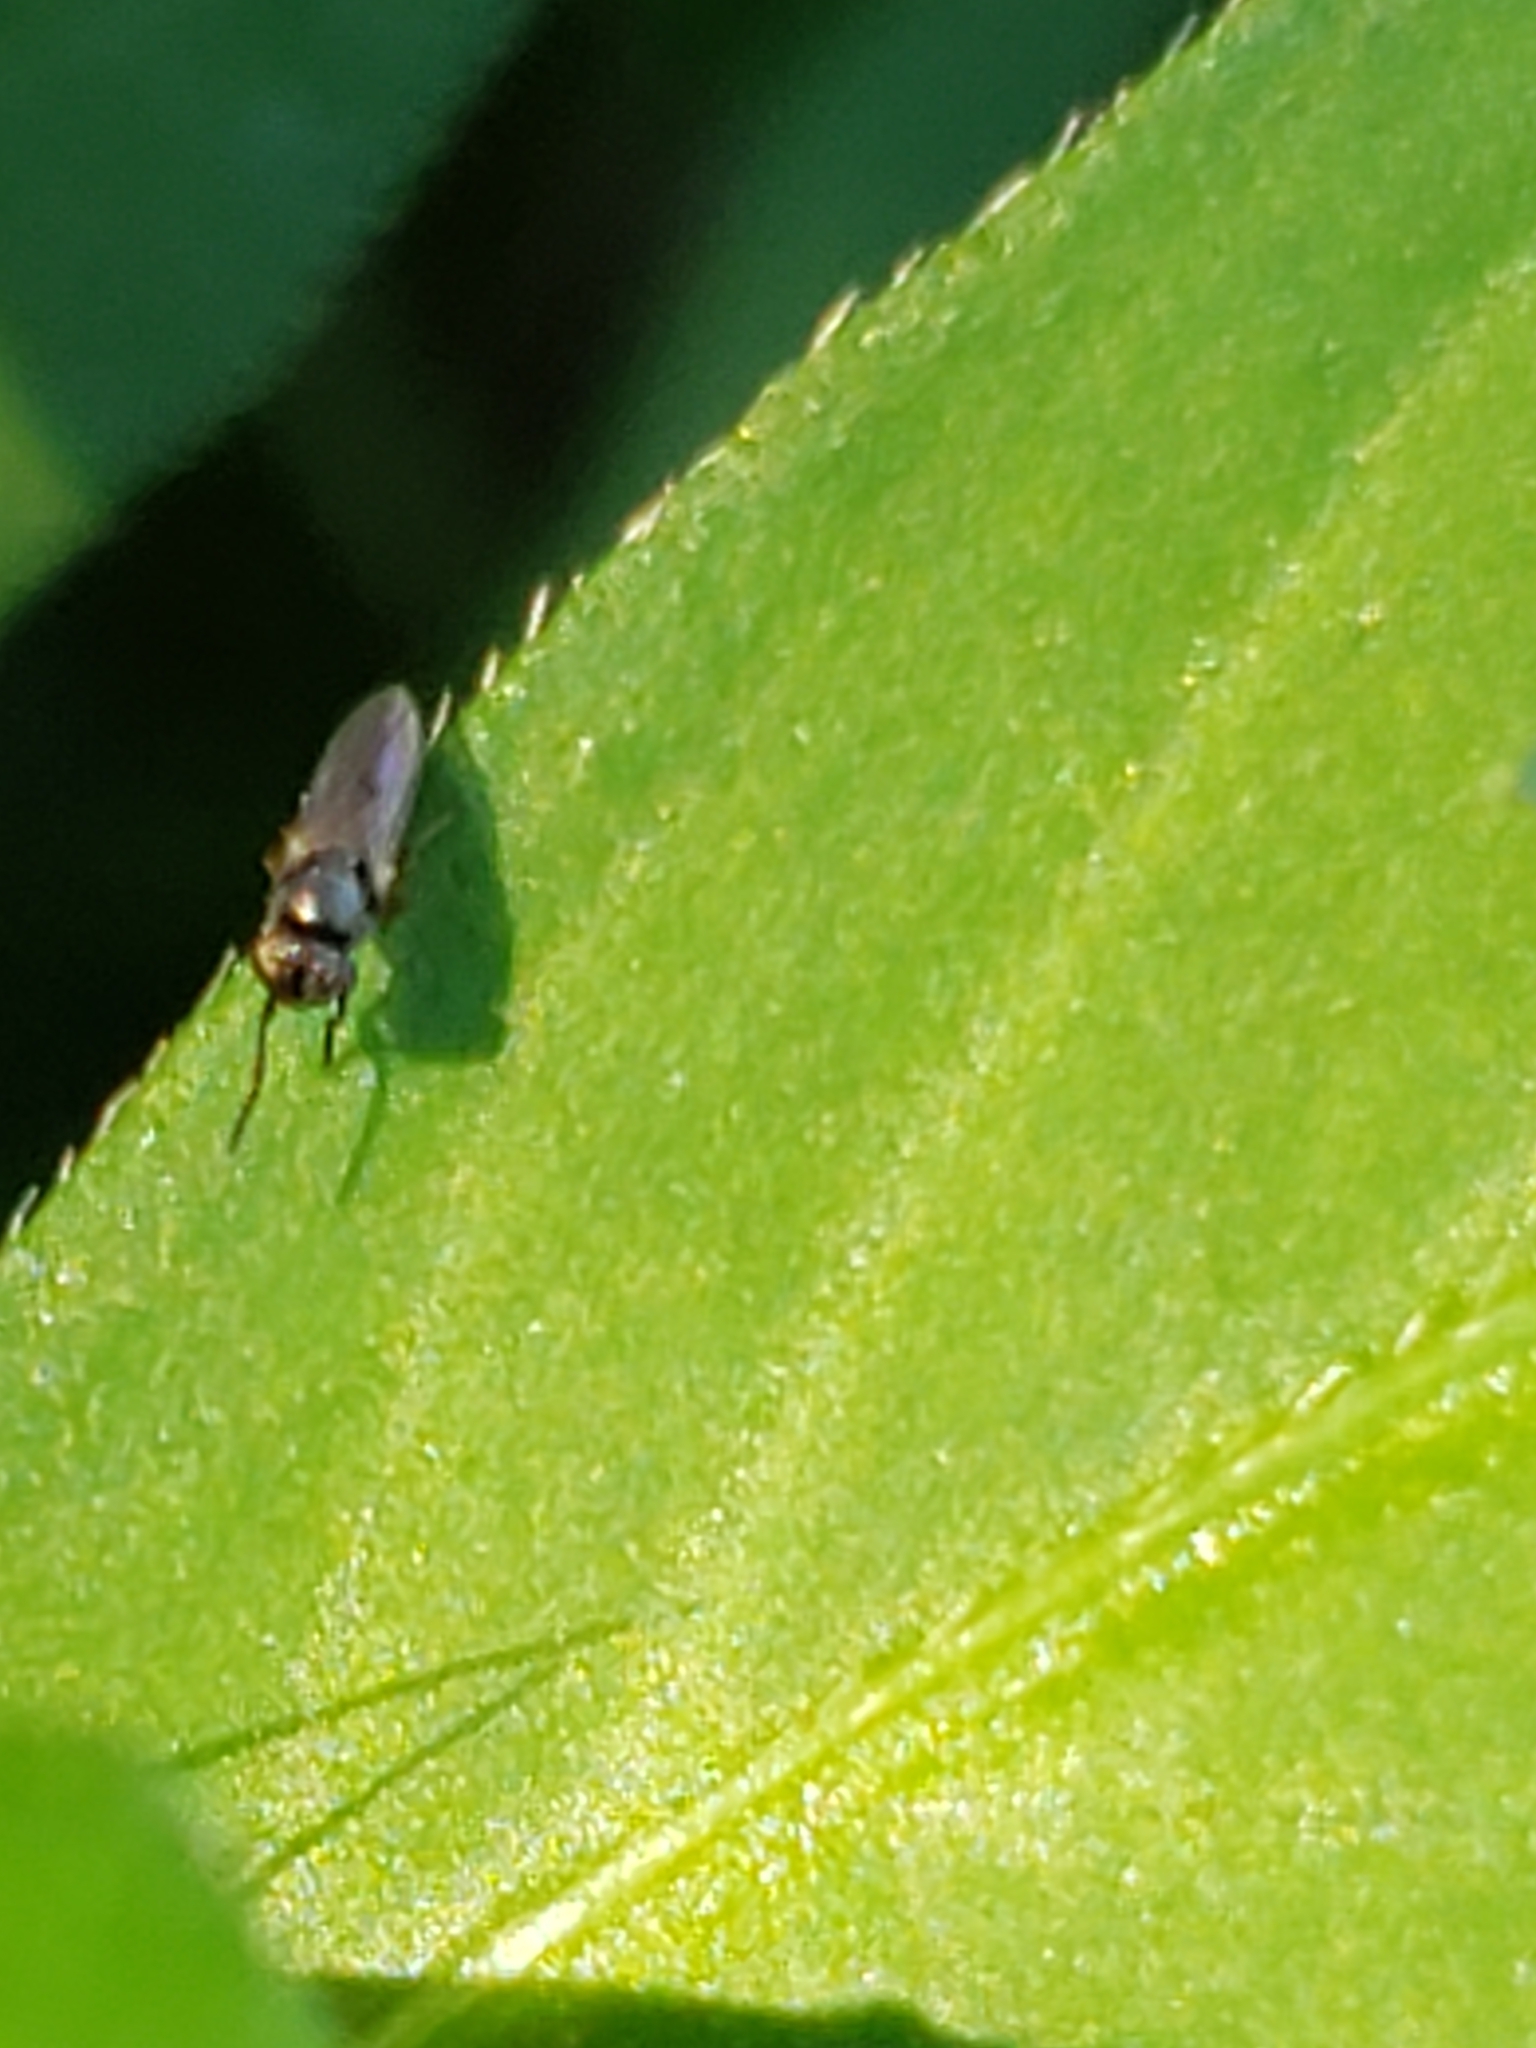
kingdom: Animalia
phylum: Arthropoda
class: Insecta
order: Diptera
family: Ephydridae
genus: Leptopsilopa
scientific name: Leptopsilopa atrimanus
